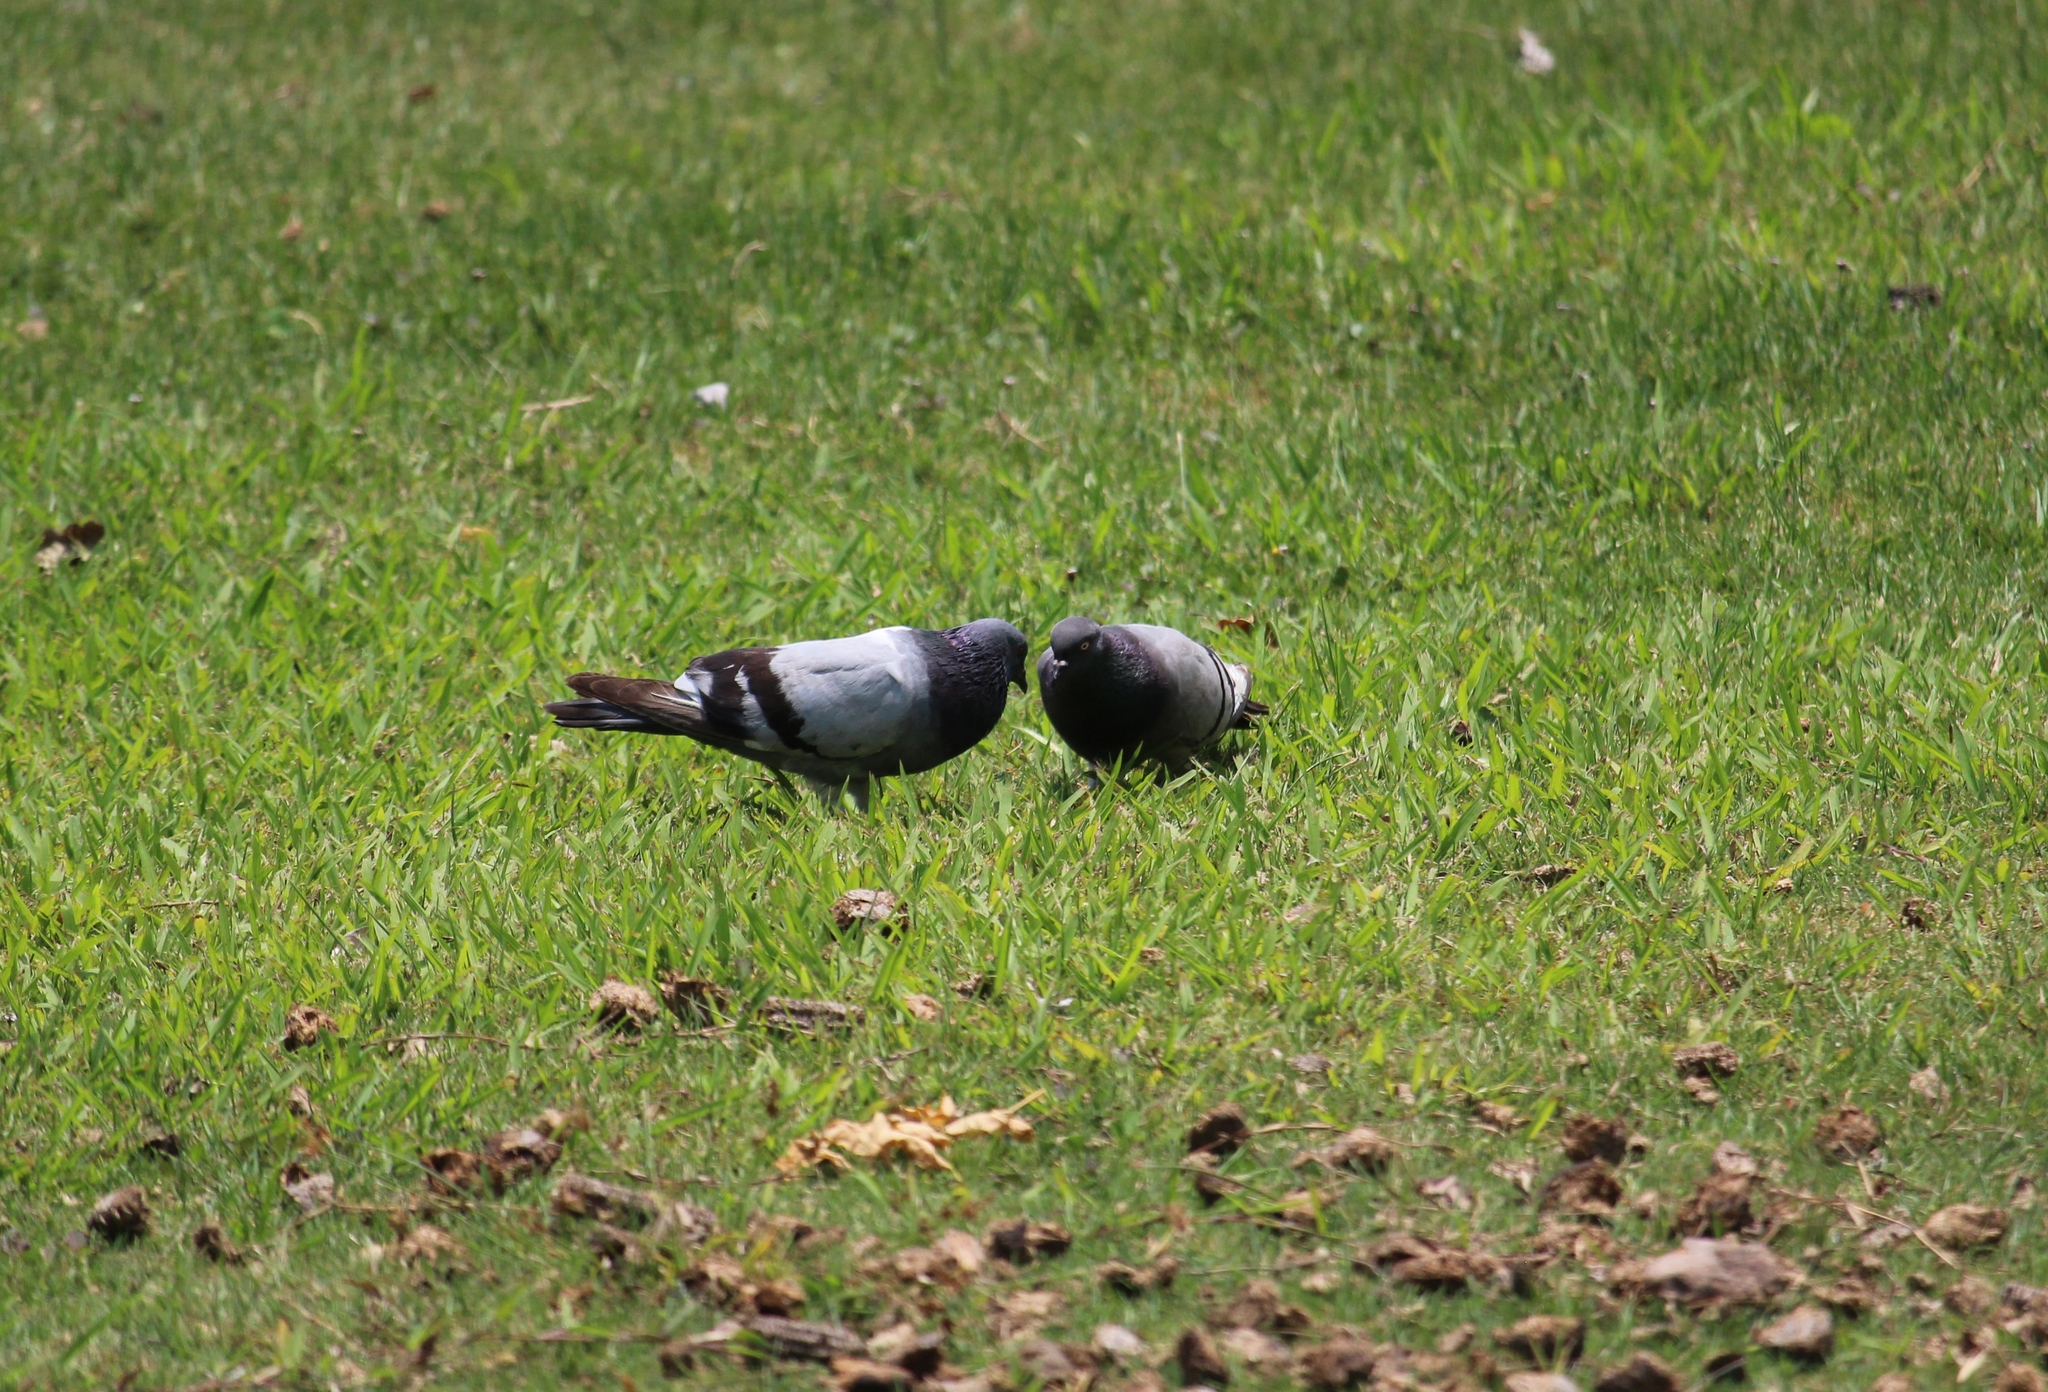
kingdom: Animalia
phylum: Chordata
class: Aves
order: Columbiformes
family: Columbidae
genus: Columba
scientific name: Columba livia
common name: Rock pigeon
